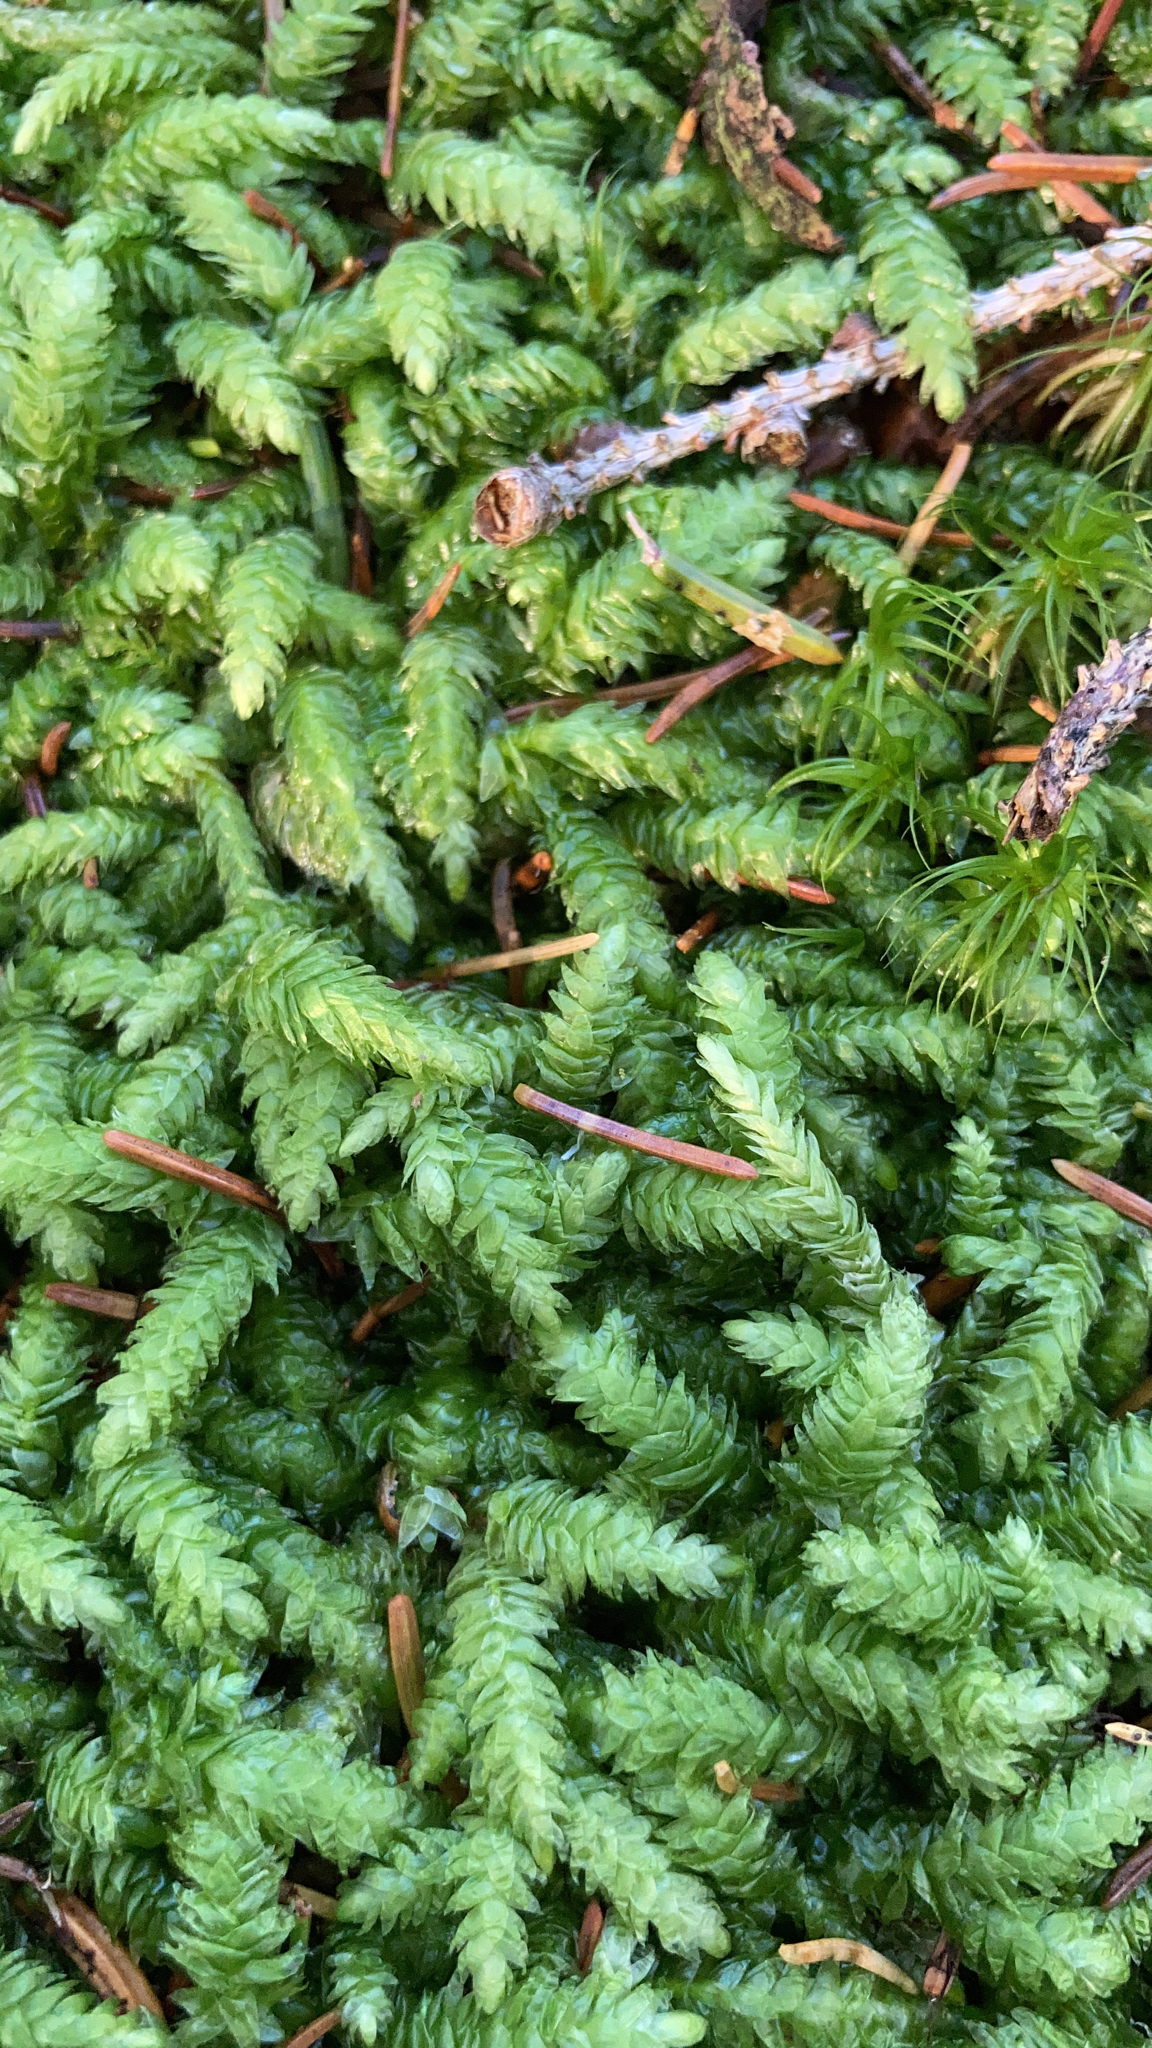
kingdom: Plantae
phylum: Bryophyta
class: Bryopsida
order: Hypnales
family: Plagiotheciaceae
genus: Plagiothecium
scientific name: Plagiothecium undulatum
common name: Waved silk-moss
